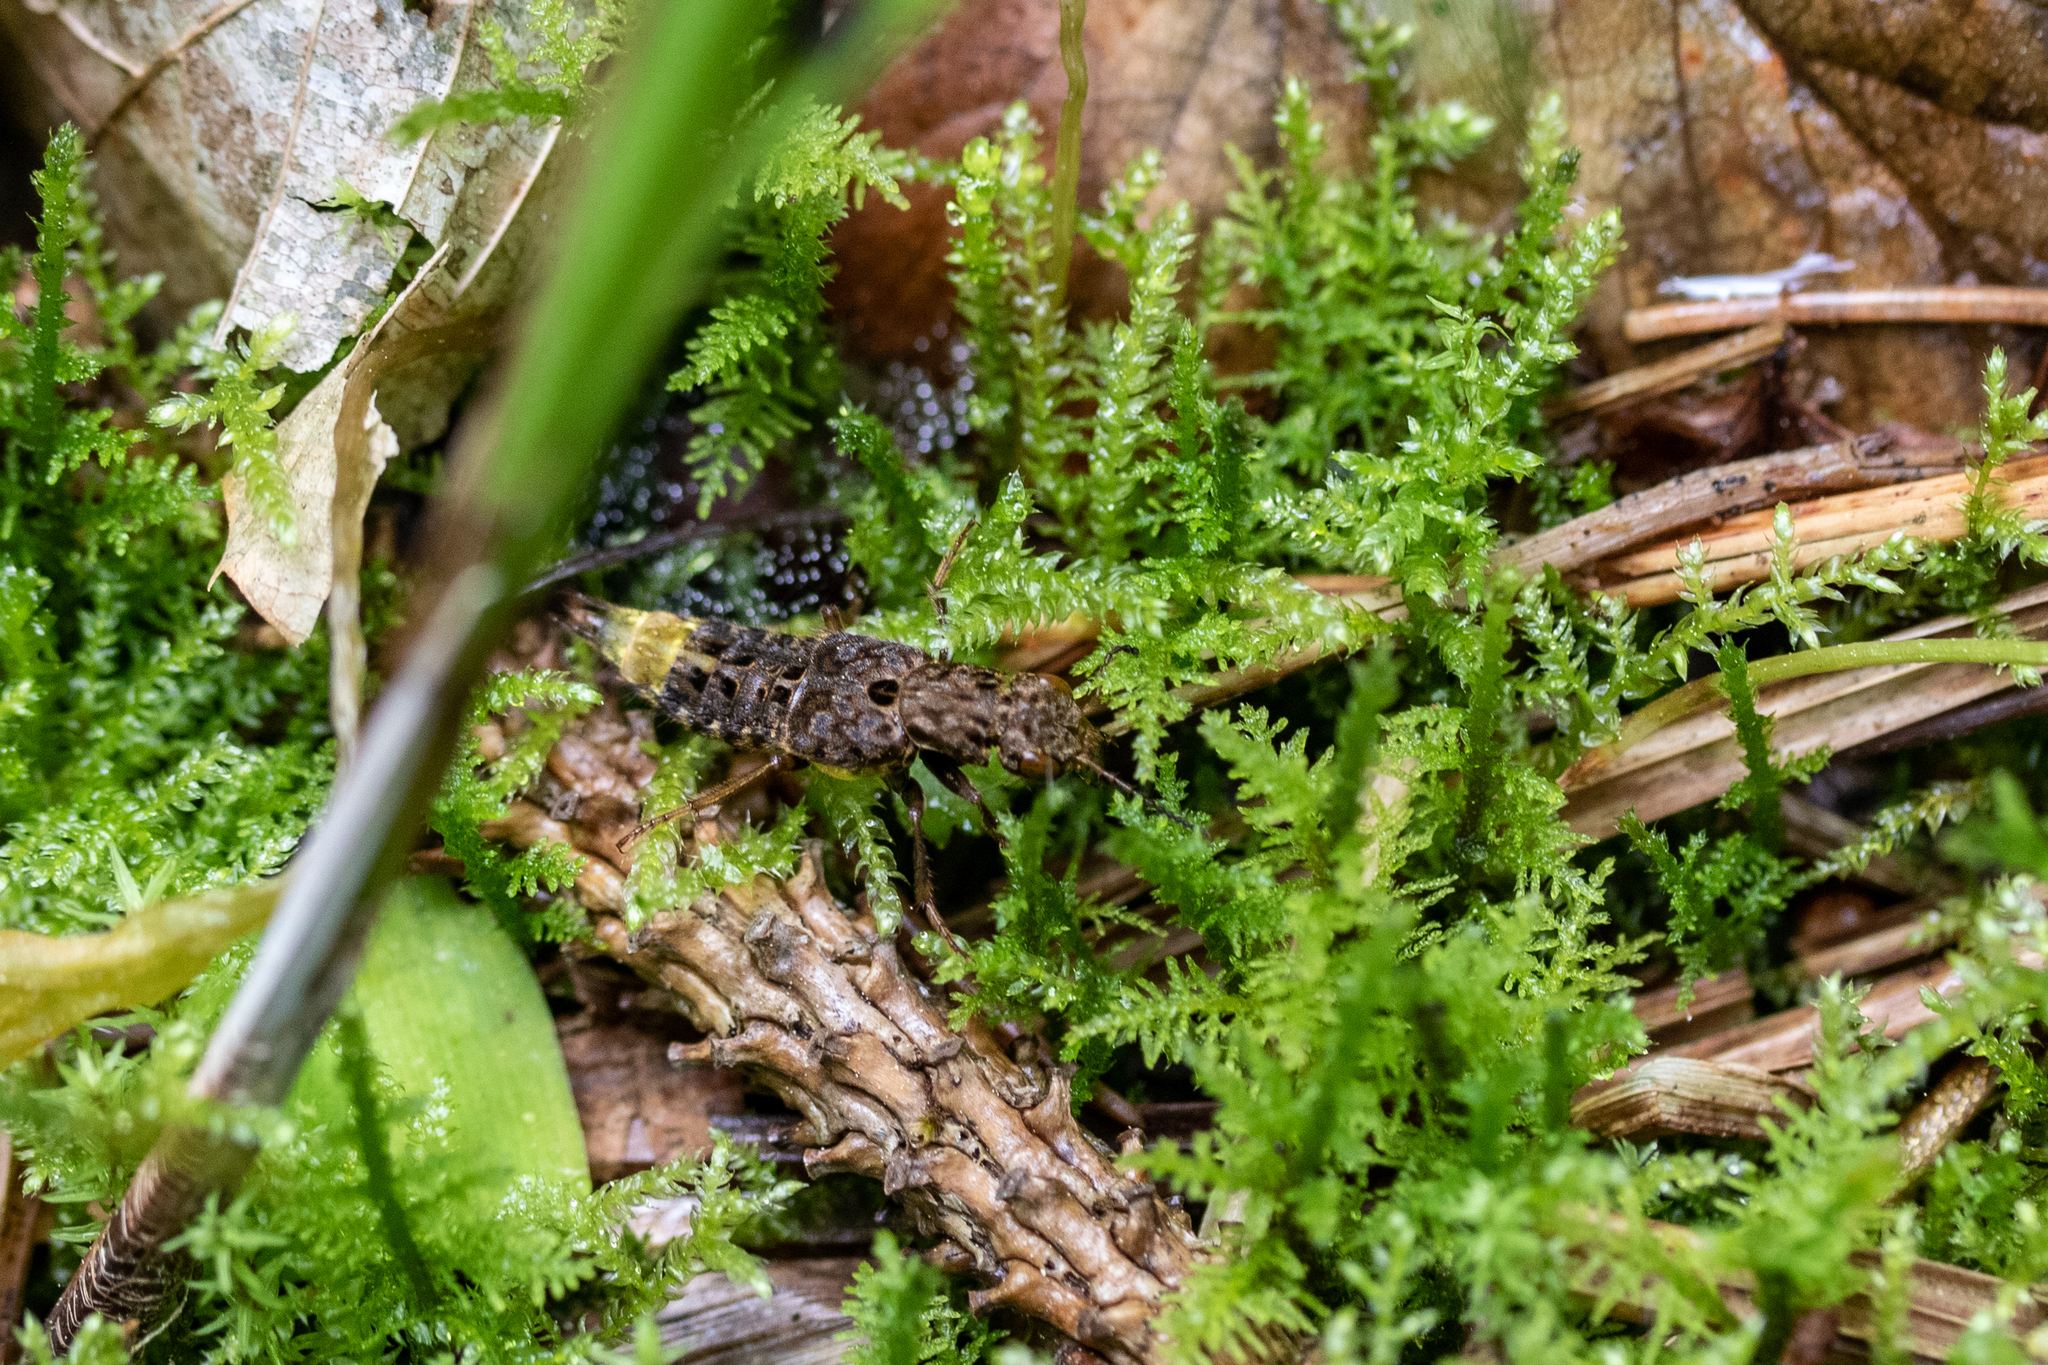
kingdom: Animalia
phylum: Arthropoda
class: Insecta
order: Coleoptera
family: Staphylinidae
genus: Ontholestes
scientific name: Ontholestes cingulatus
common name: Gold-and-brown rove beetle
